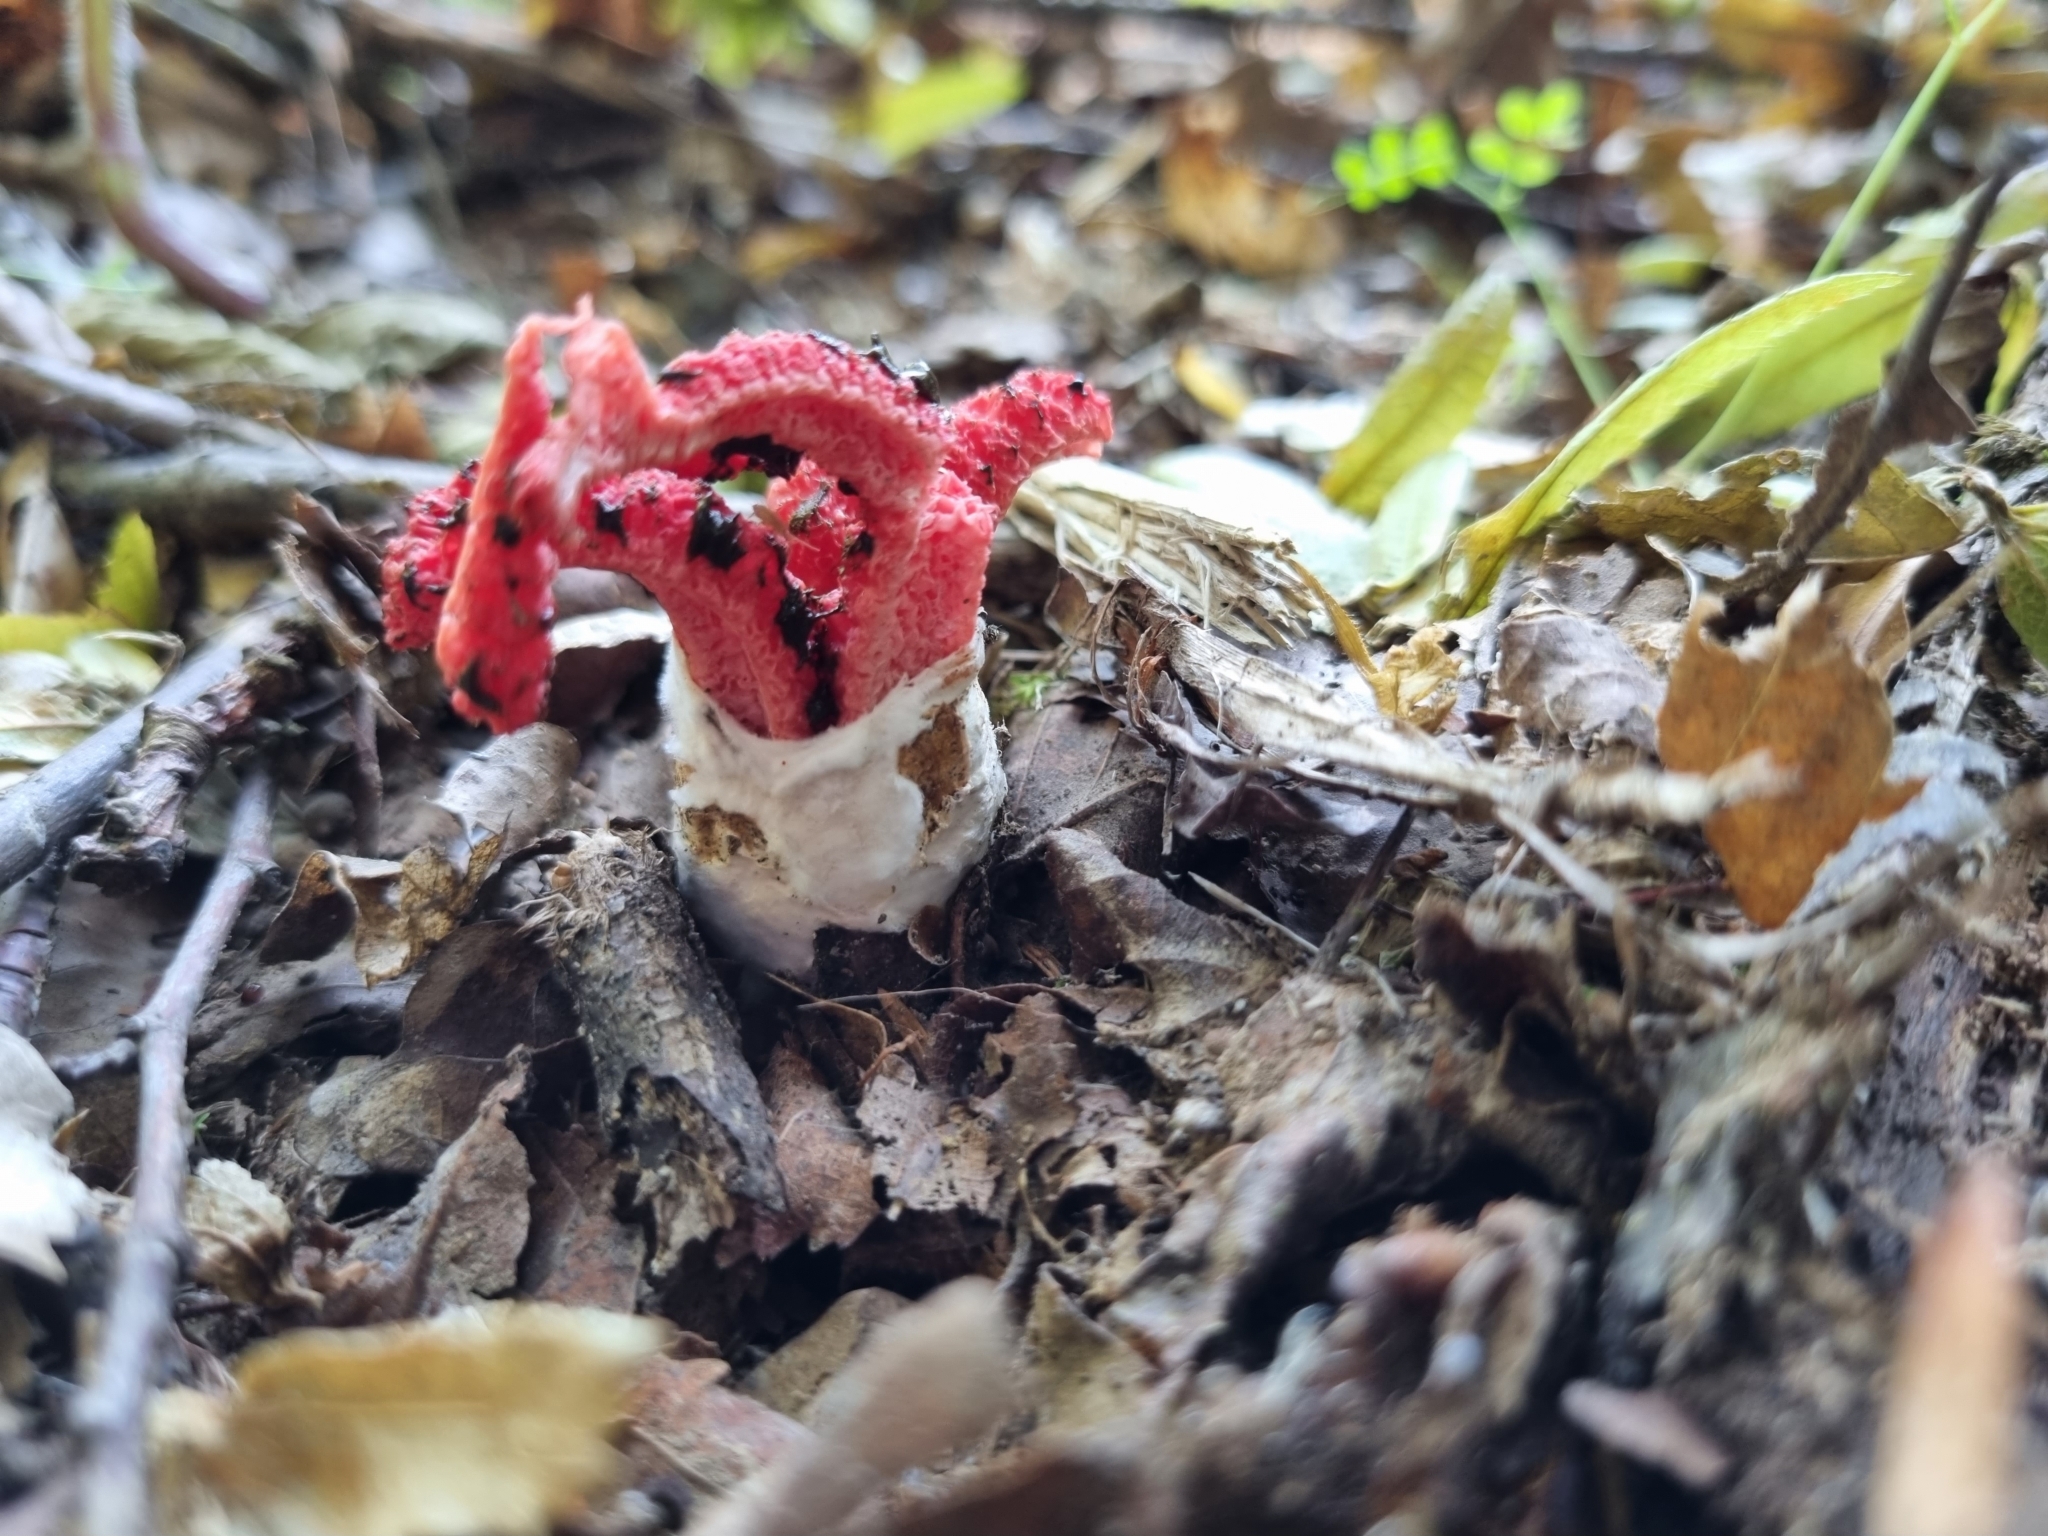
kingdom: Fungi
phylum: Basidiomycota
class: Agaricomycetes
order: Phallales
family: Phallaceae
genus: Clathrus
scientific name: Clathrus archeri
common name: Devil's fingers
